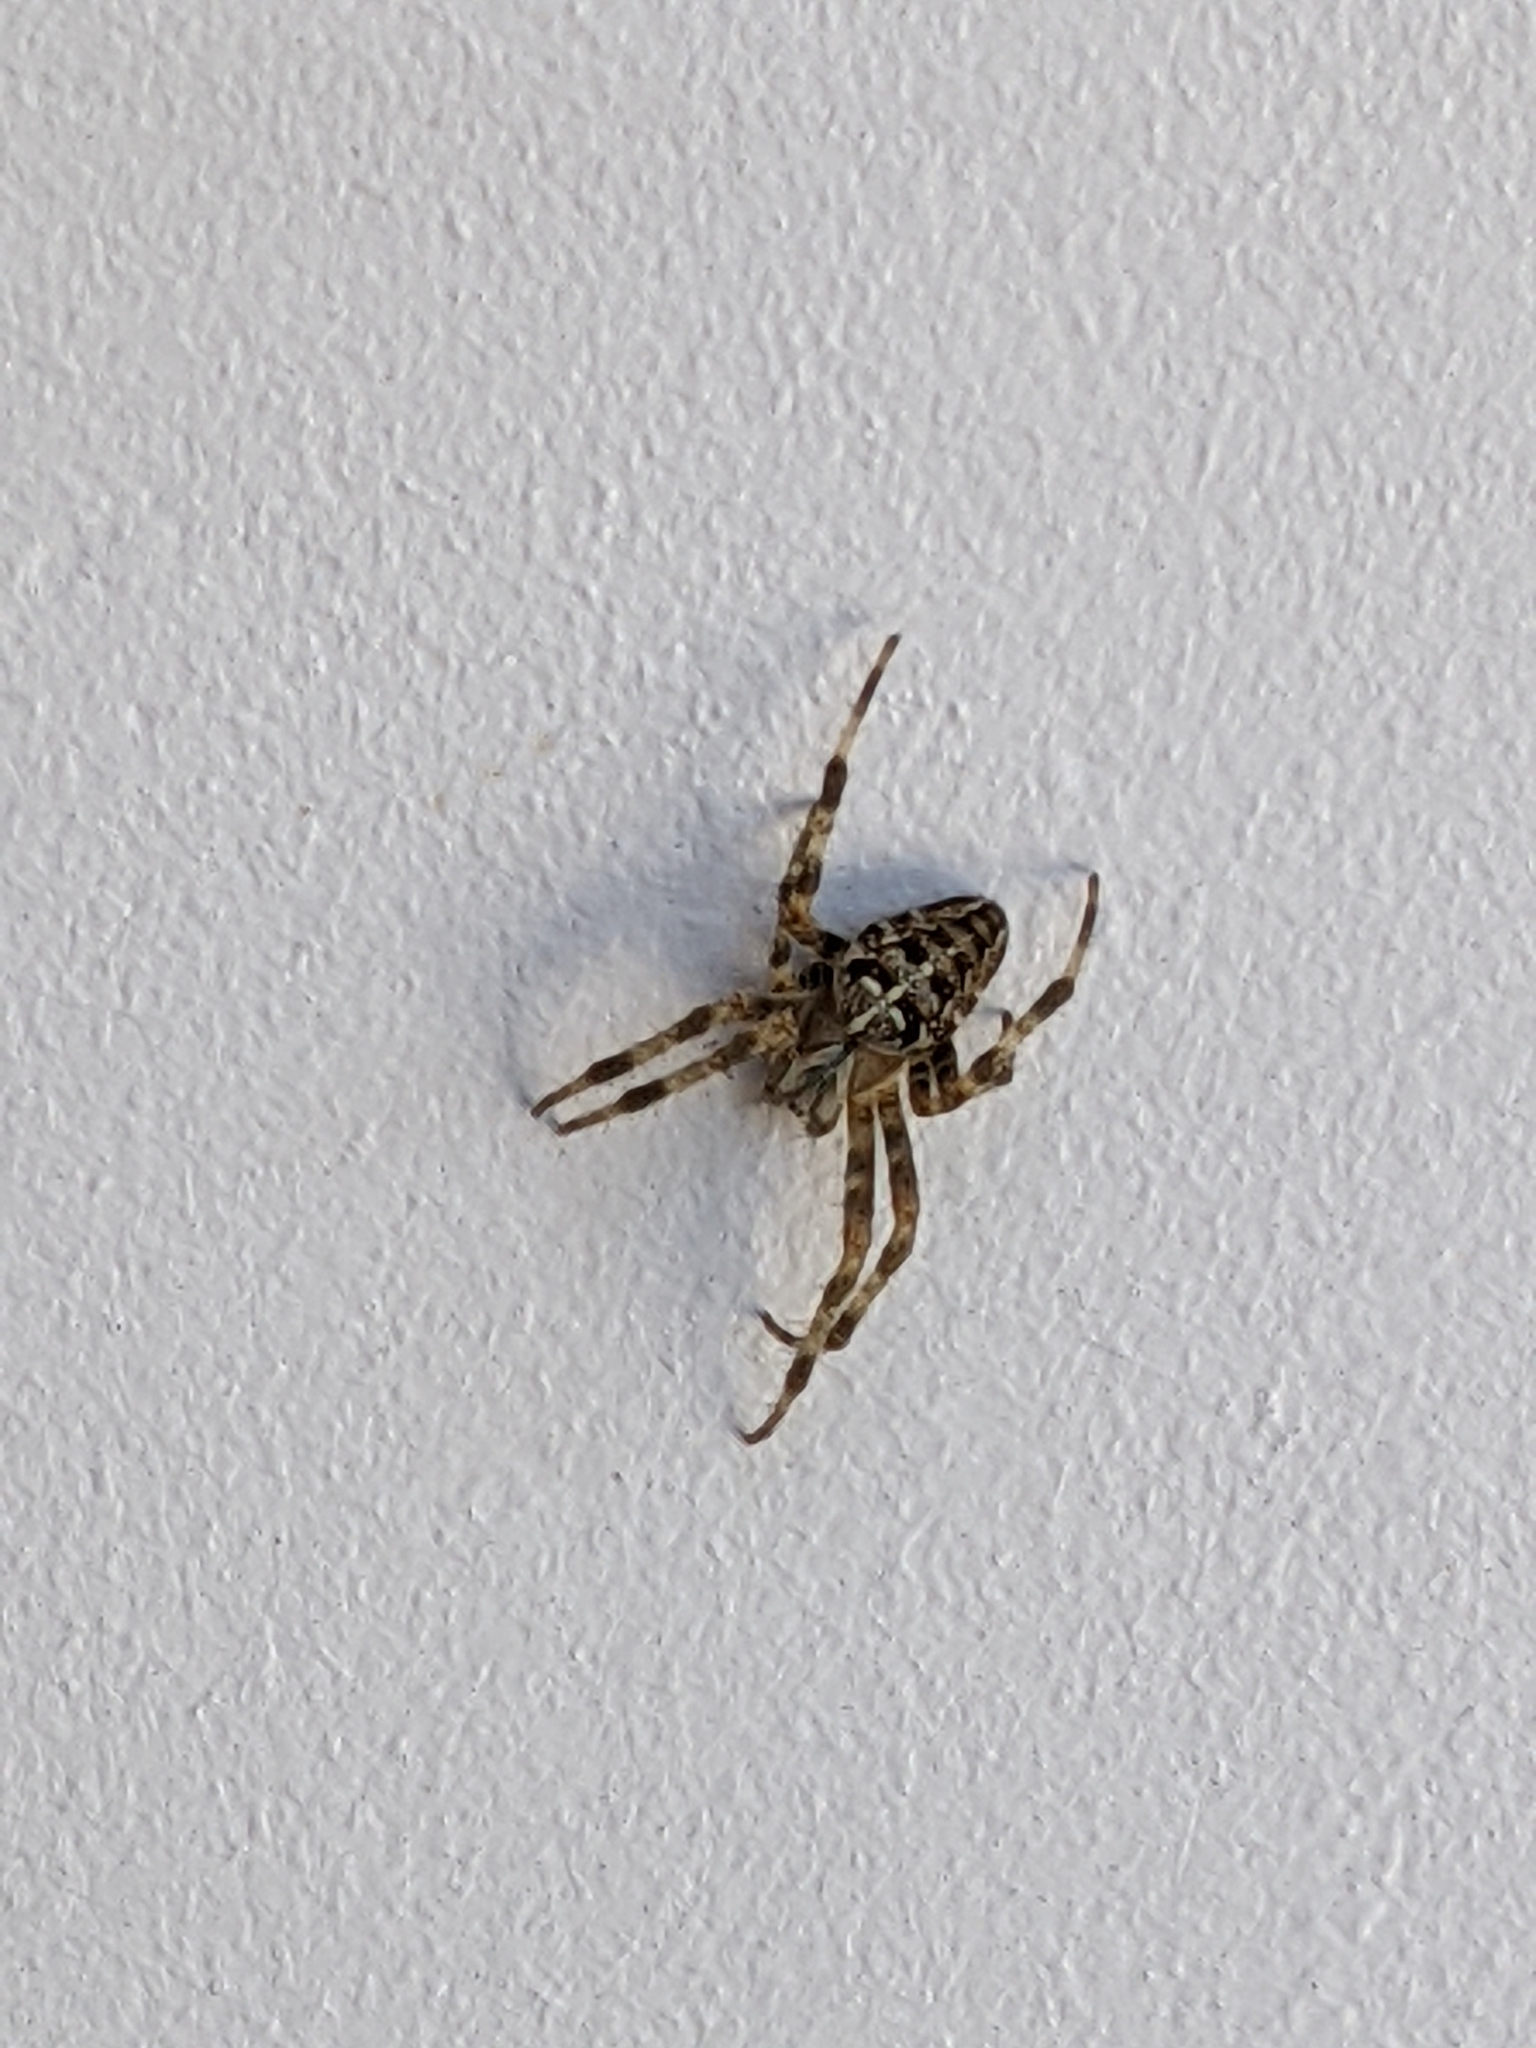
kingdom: Animalia
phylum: Arthropoda
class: Arachnida
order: Araneae
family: Araneidae
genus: Araneus
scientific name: Araneus diadematus
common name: Cross orbweaver
